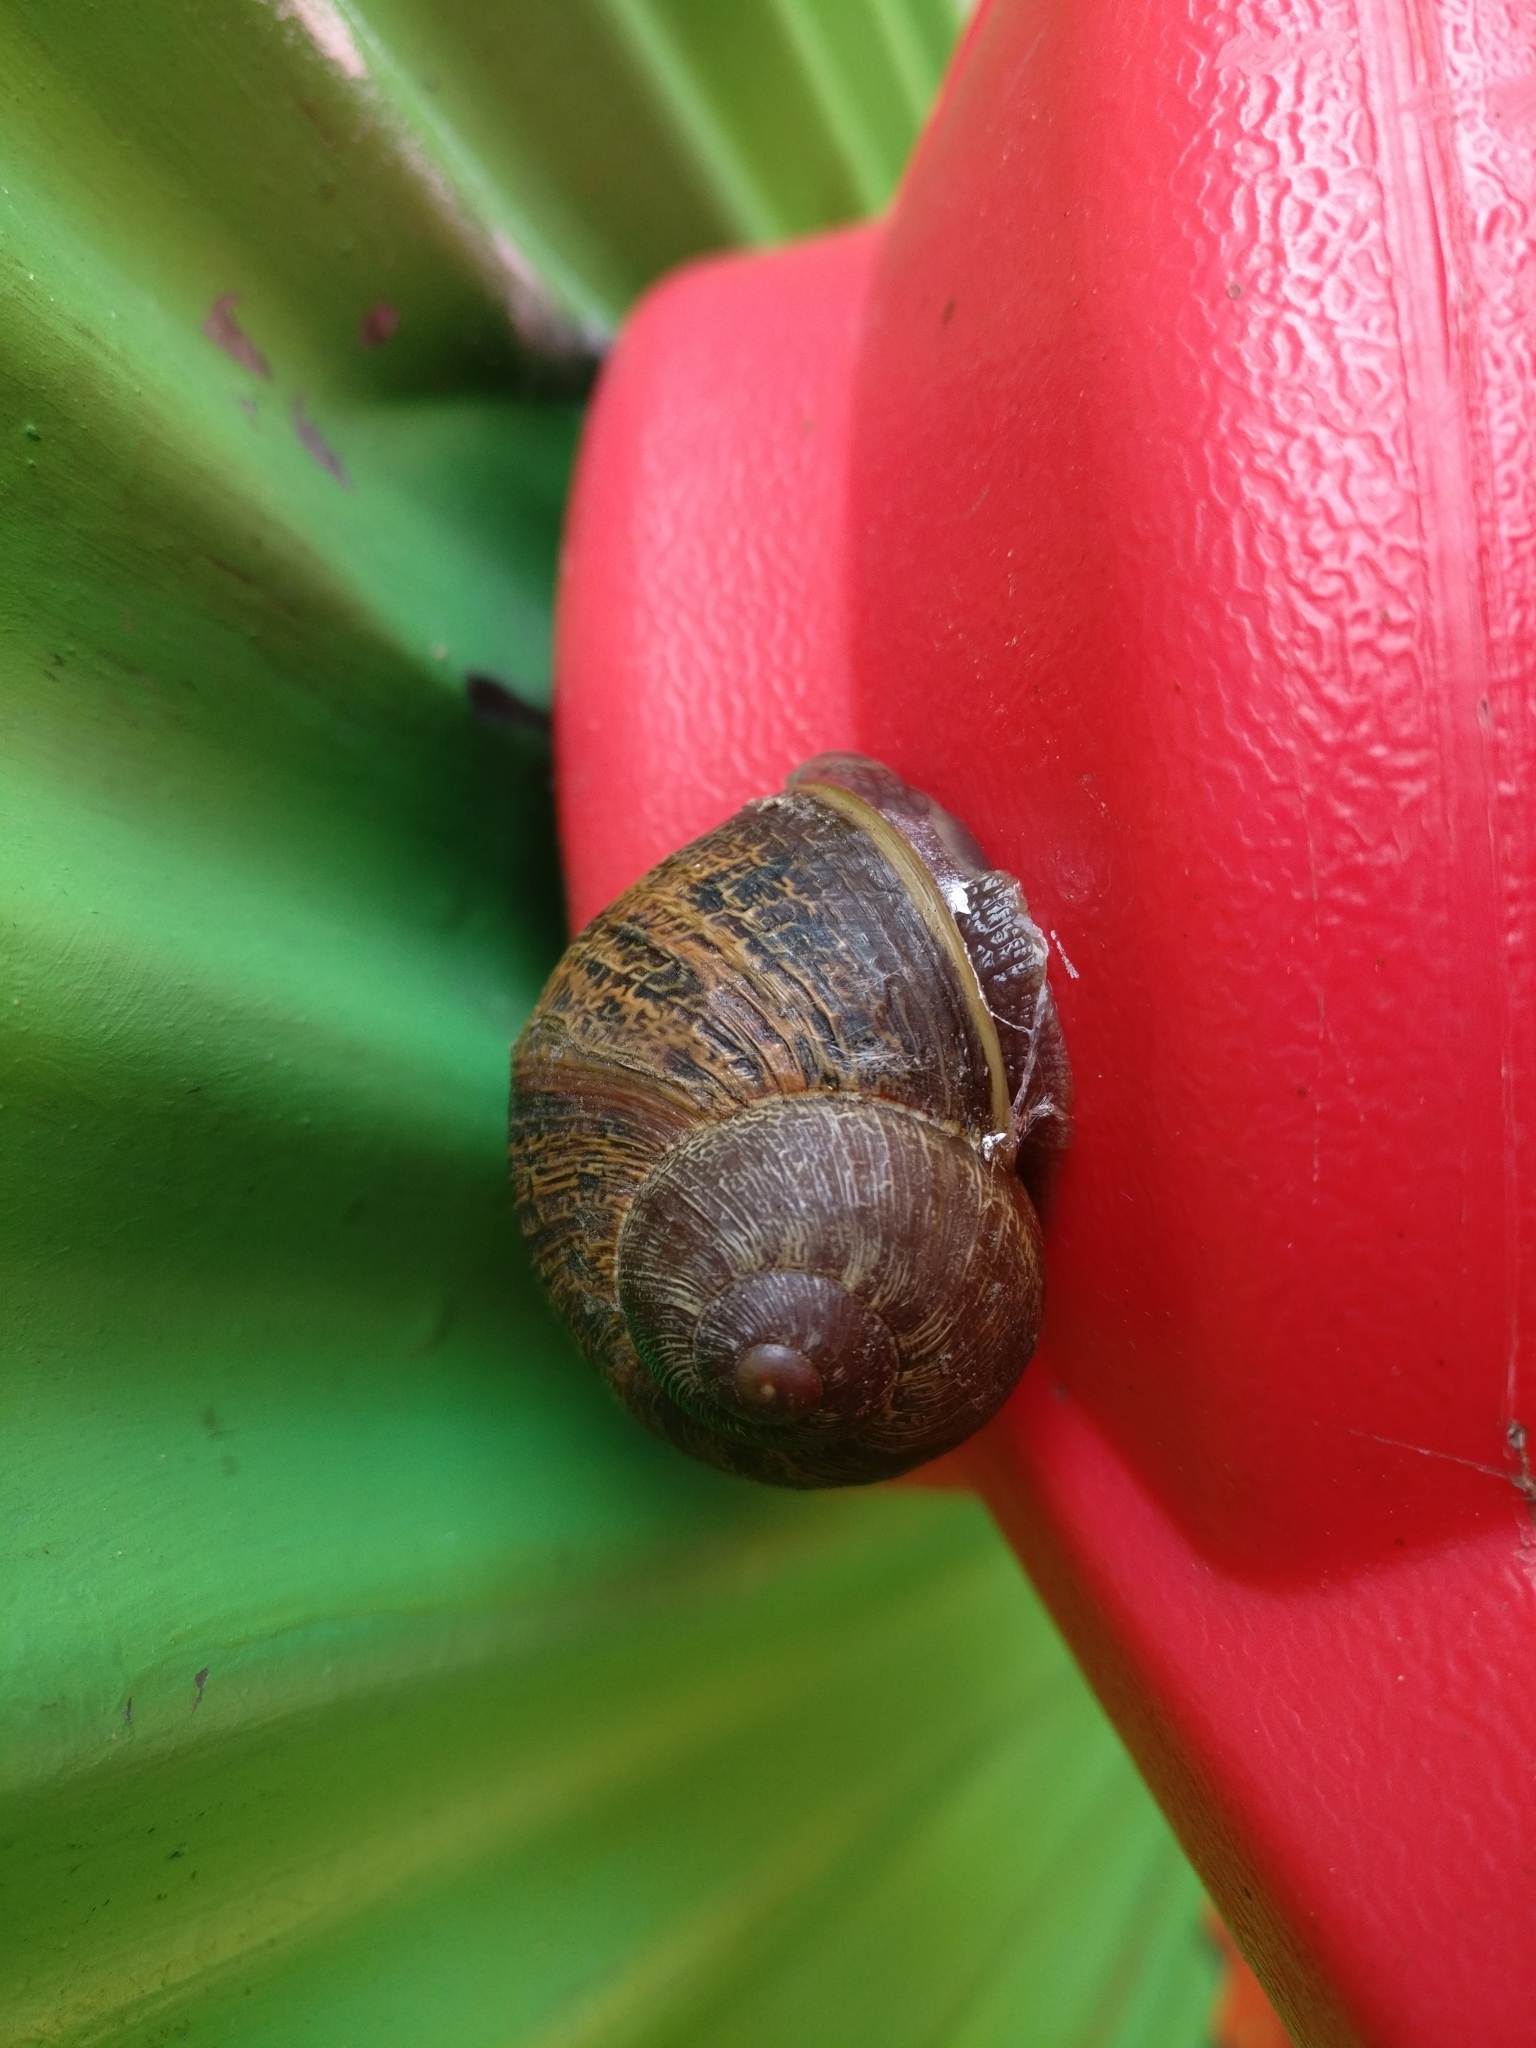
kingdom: Animalia
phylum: Mollusca
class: Gastropoda
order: Stylommatophora
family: Helicidae
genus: Cornu
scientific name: Cornu aspersum
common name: Brown garden snail
